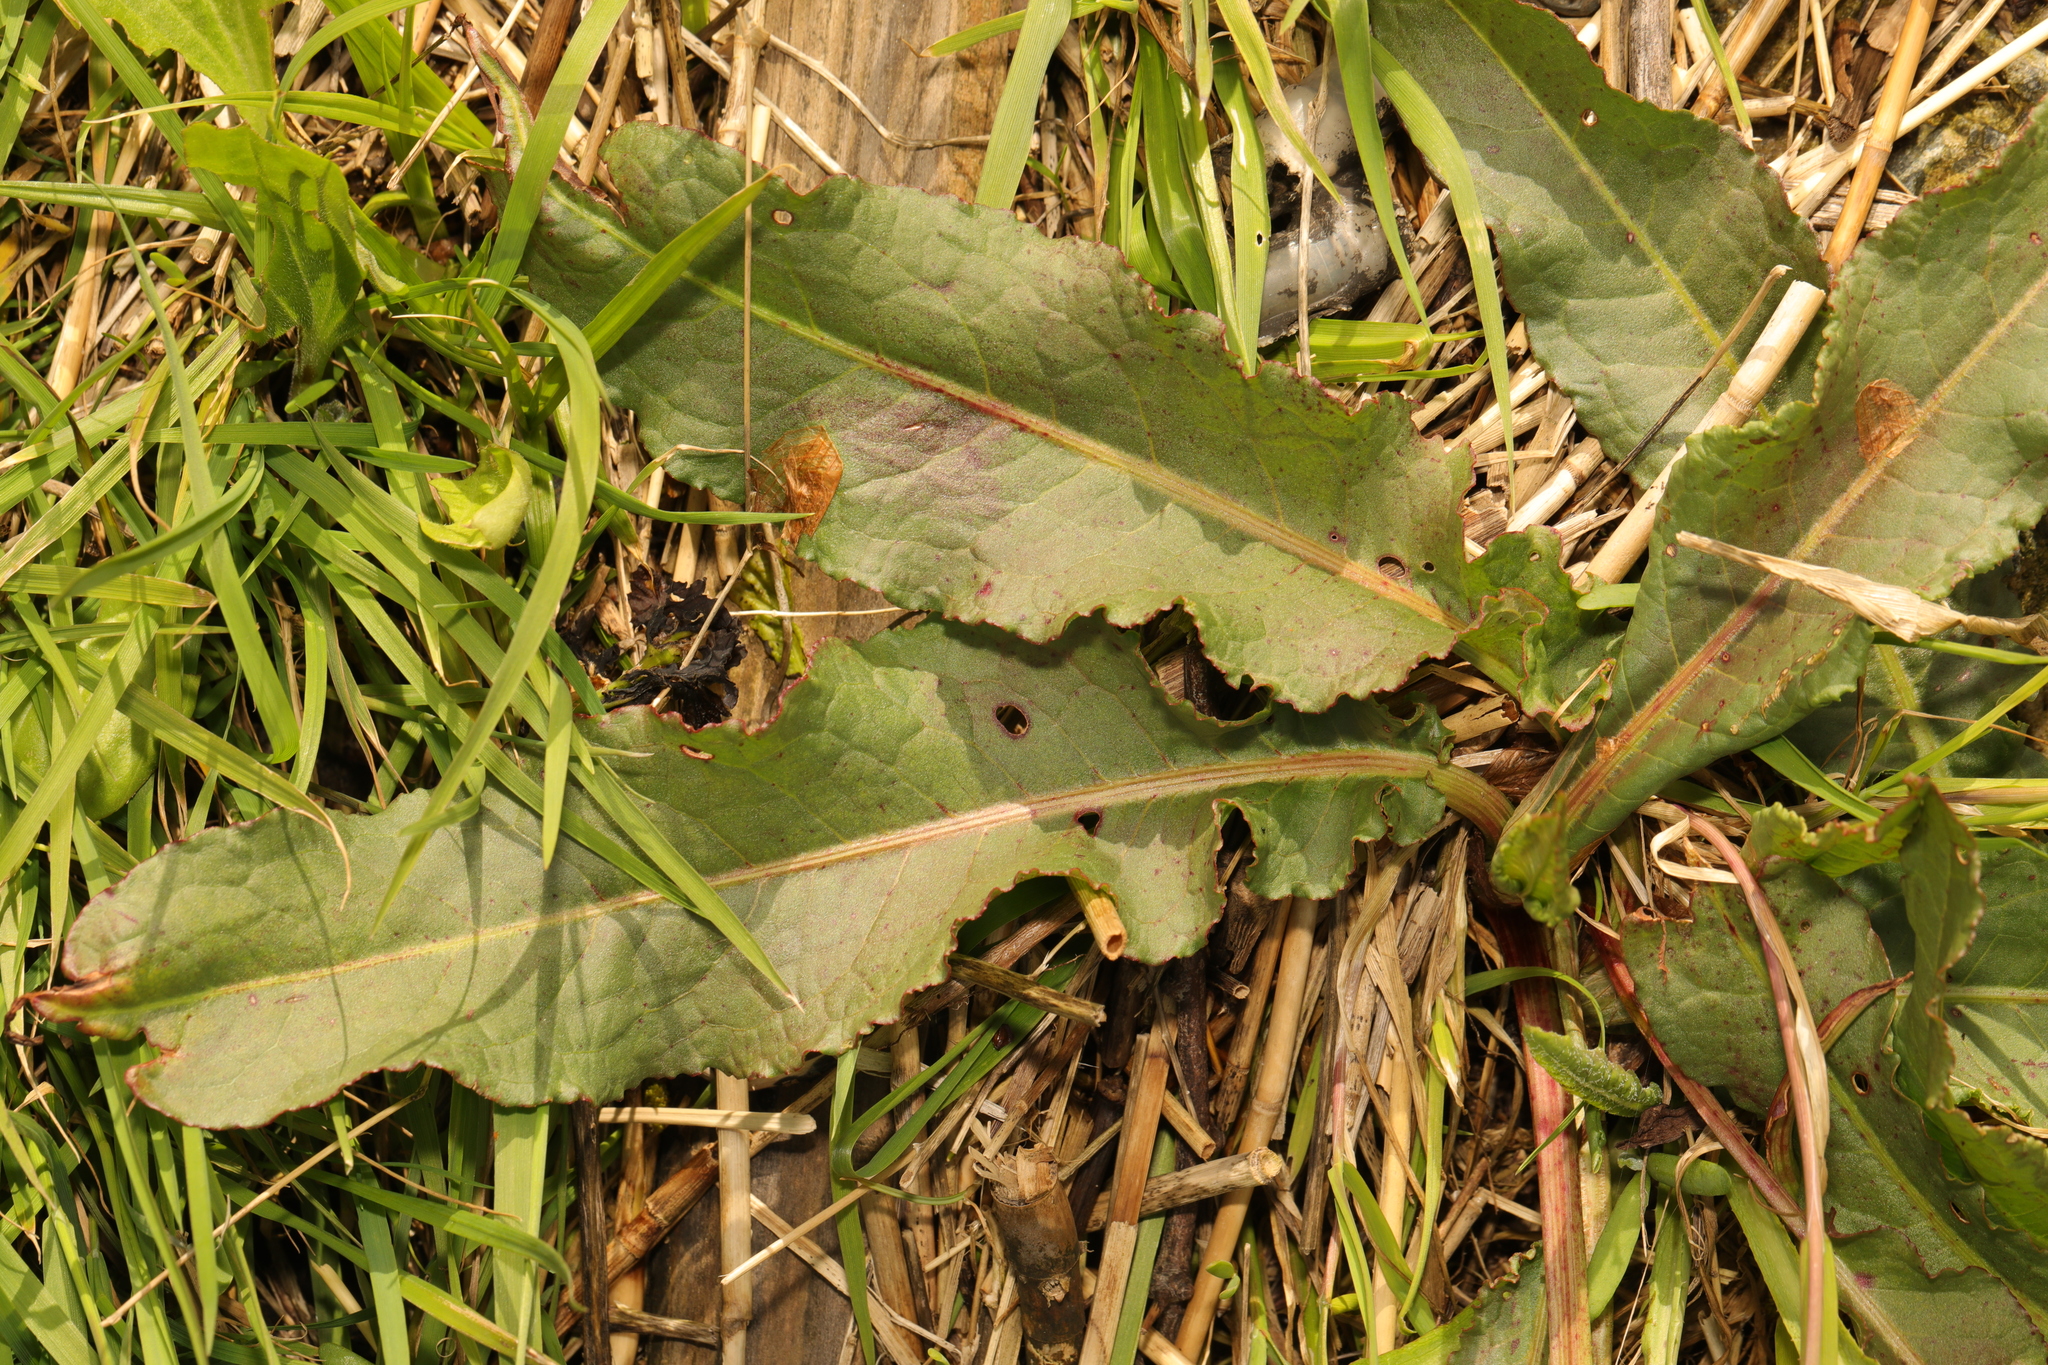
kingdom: Plantae
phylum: Tracheophyta
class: Magnoliopsida
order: Caryophyllales
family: Polygonaceae
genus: Rumex
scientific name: Rumex crispus
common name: Curled dock
